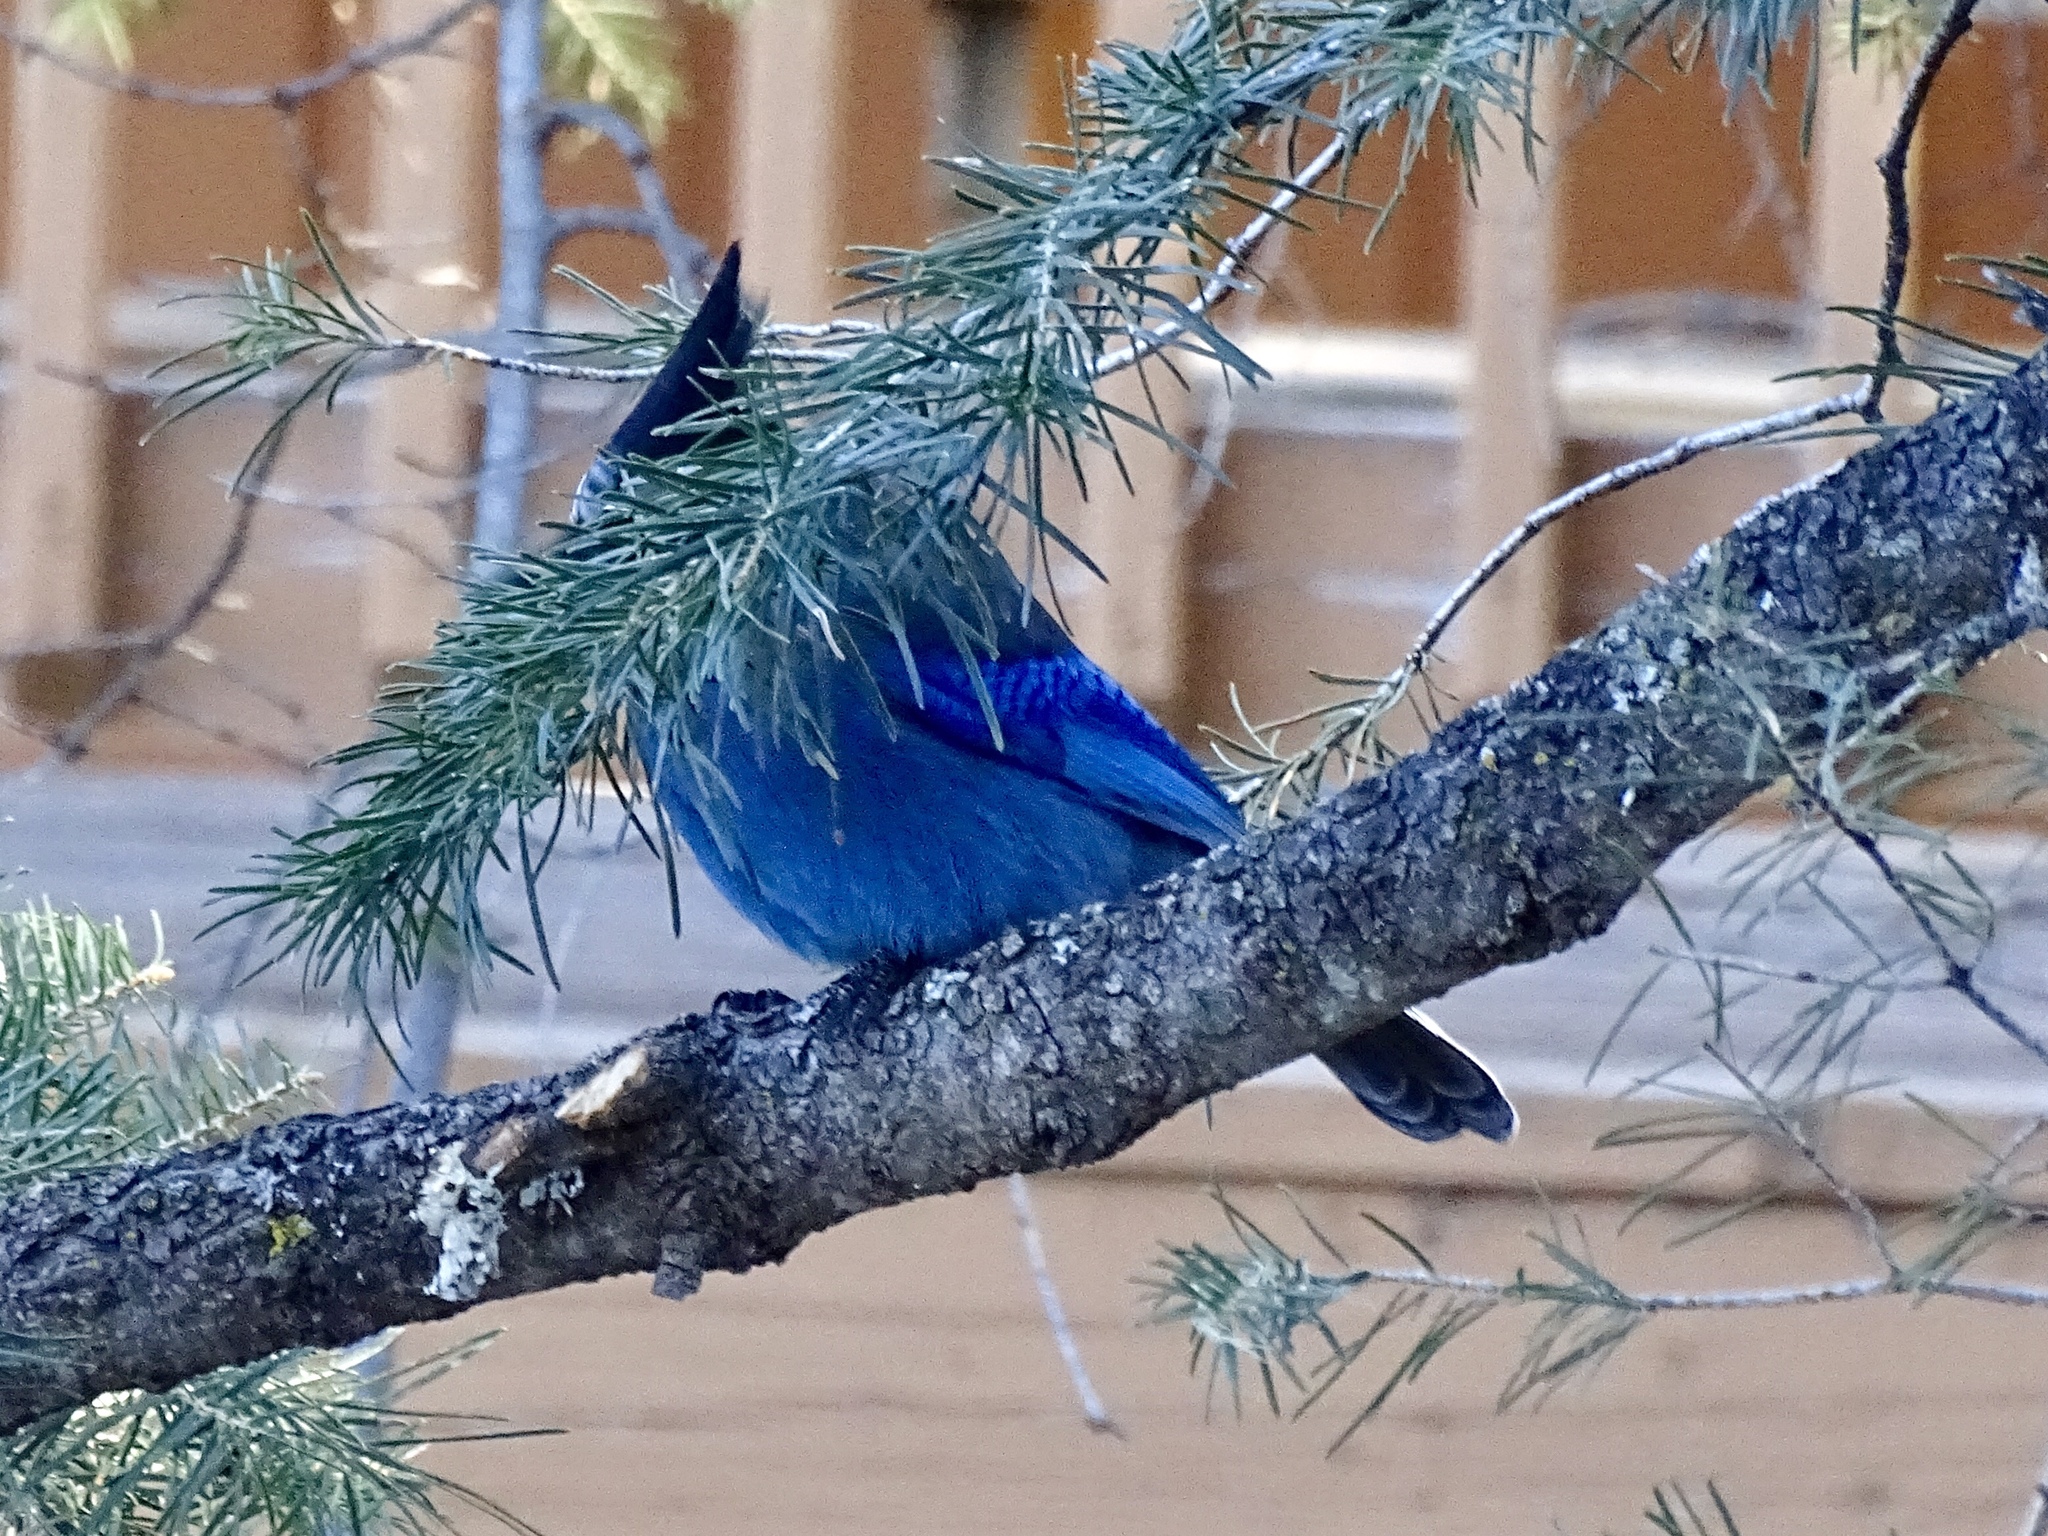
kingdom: Animalia
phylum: Chordata
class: Aves
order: Passeriformes
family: Corvidae
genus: Cyanocitta
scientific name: Cyanocitta stelleri
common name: Steller's jay
